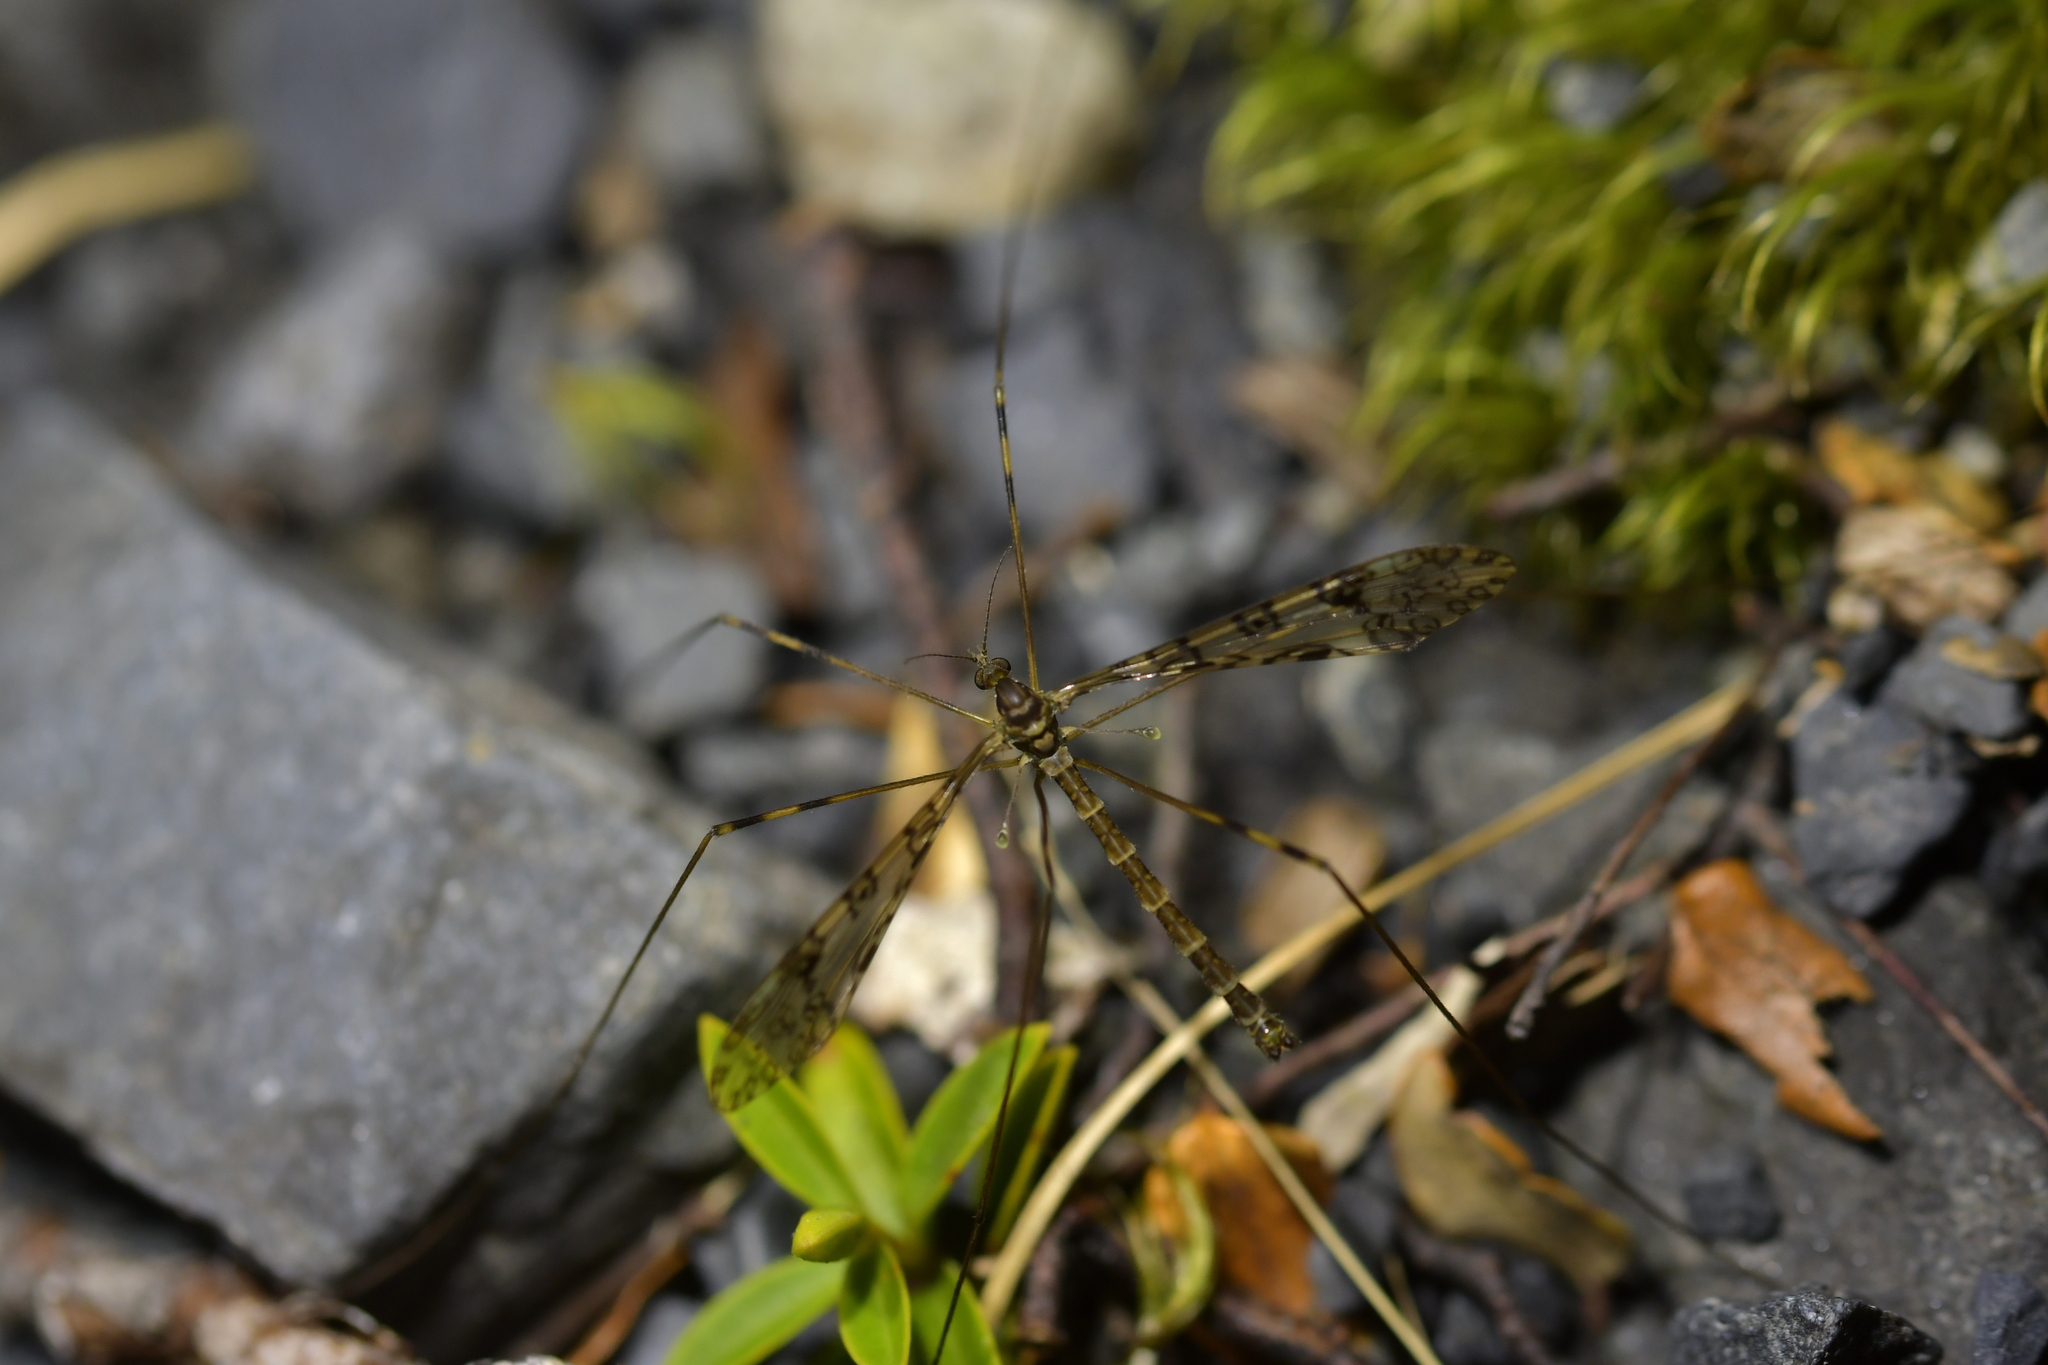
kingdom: Animalia
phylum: Arthropoda
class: Insecta
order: Diptera
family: Limoniidae
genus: Austrolimnophila
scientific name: Austrolimnophila argus
